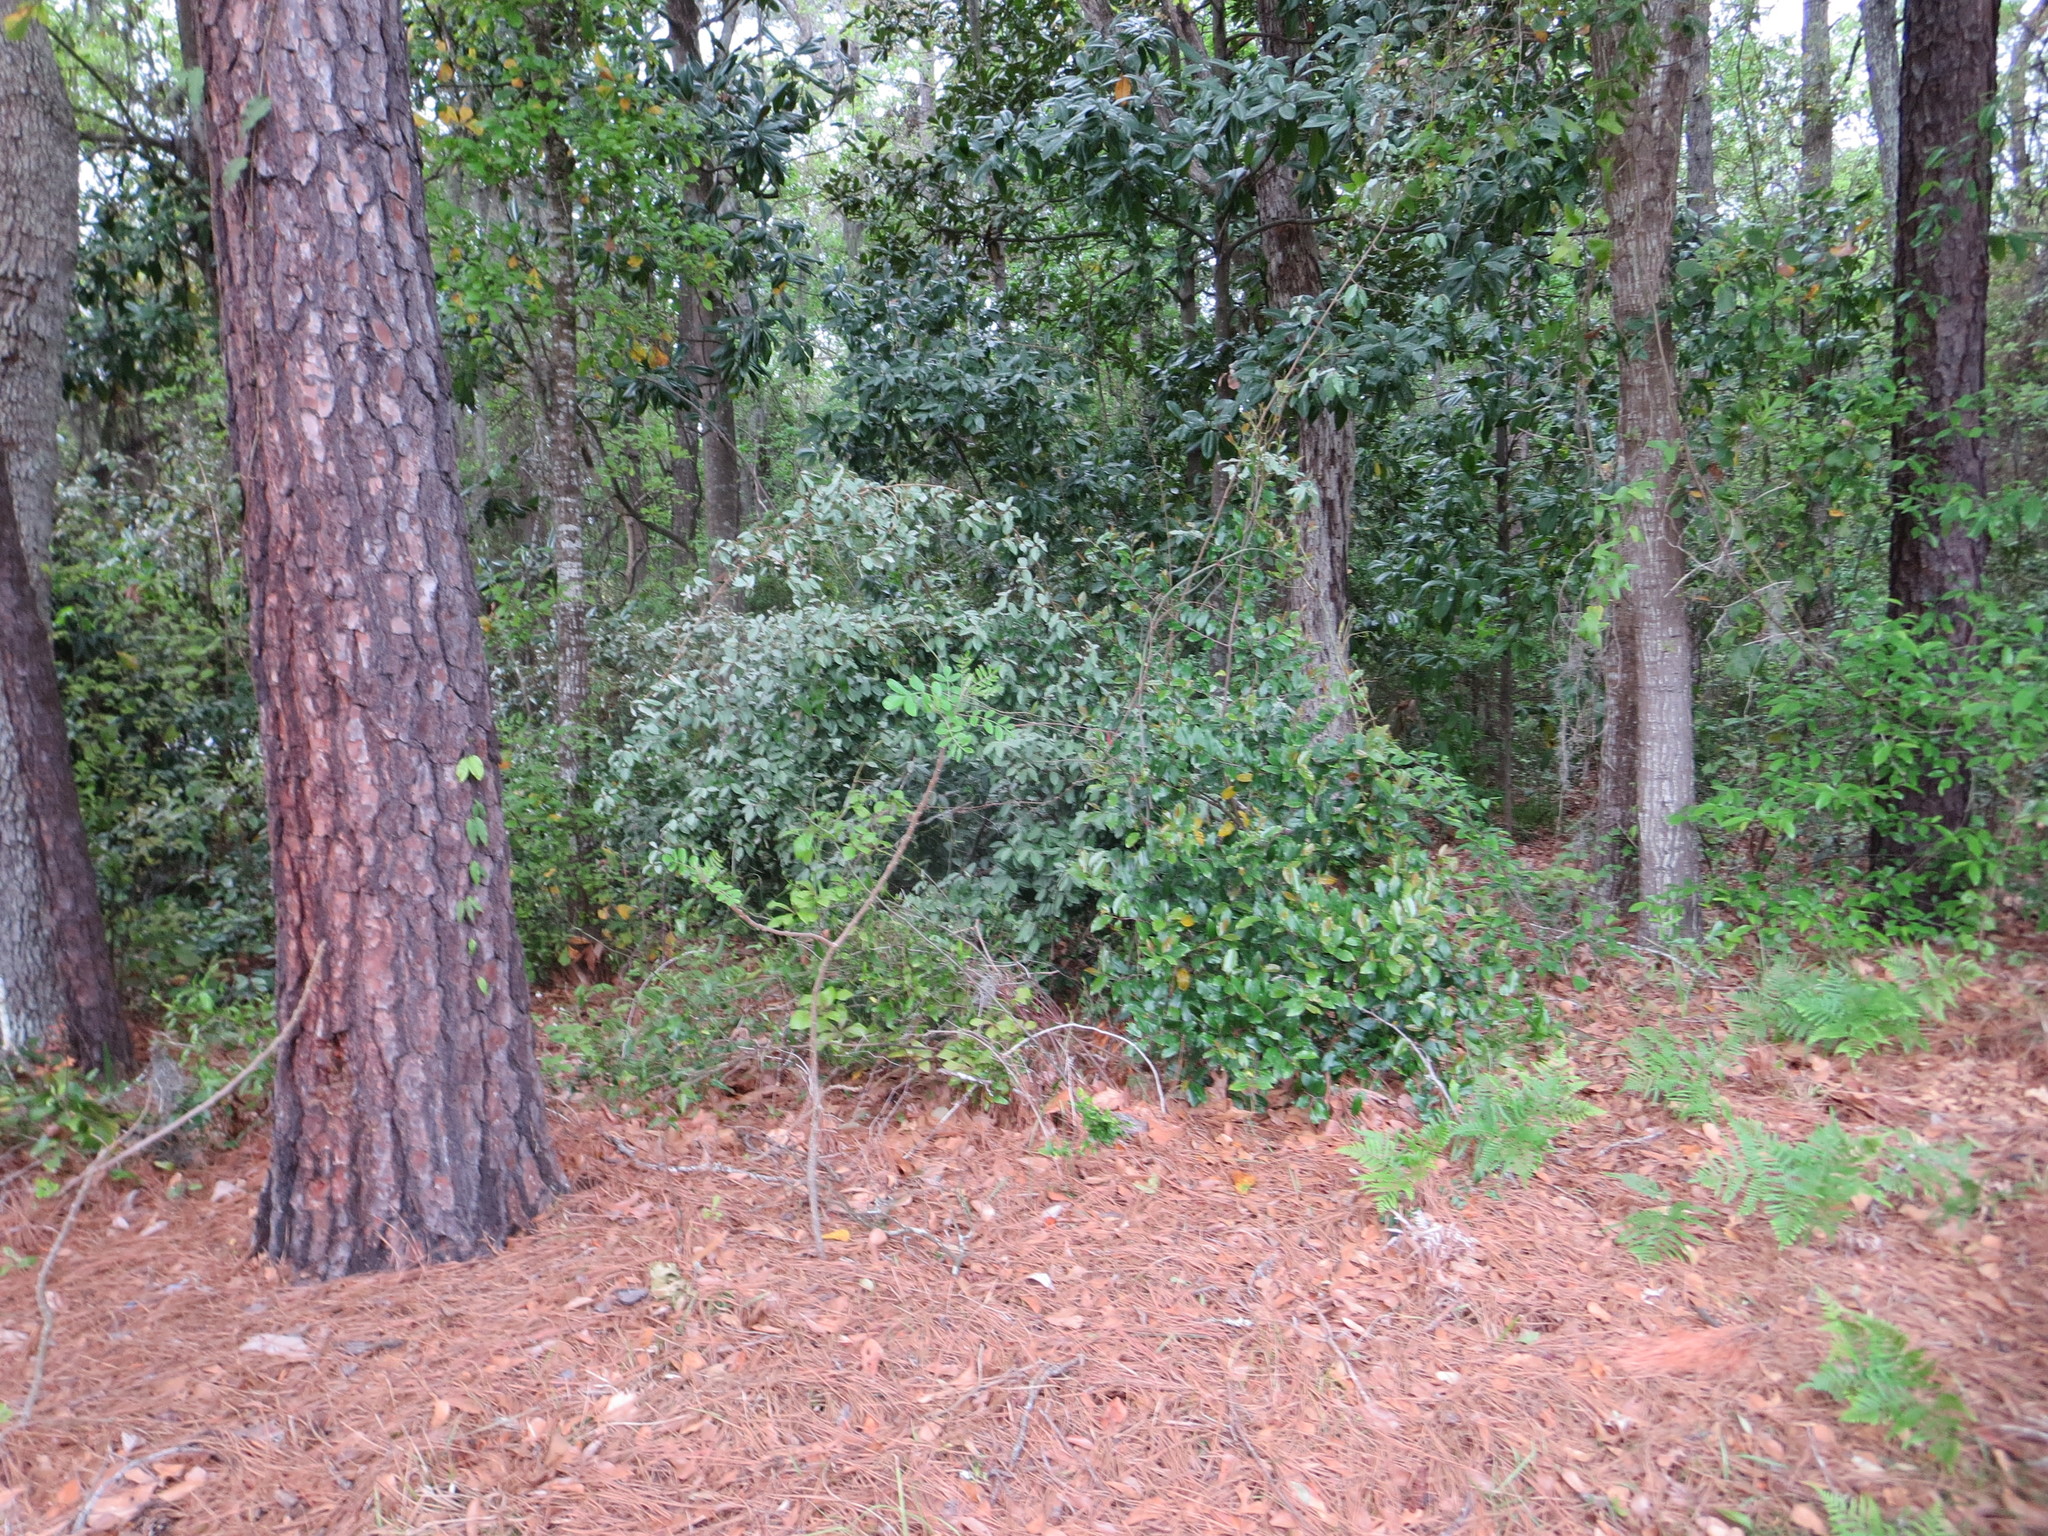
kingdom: Plantae
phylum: Tracheophyta
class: Magnoliopsida
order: Rosales
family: Elaeagnaceae
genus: Elaeagnus
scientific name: Elaeagnus pungens
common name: Spiny oleaster
